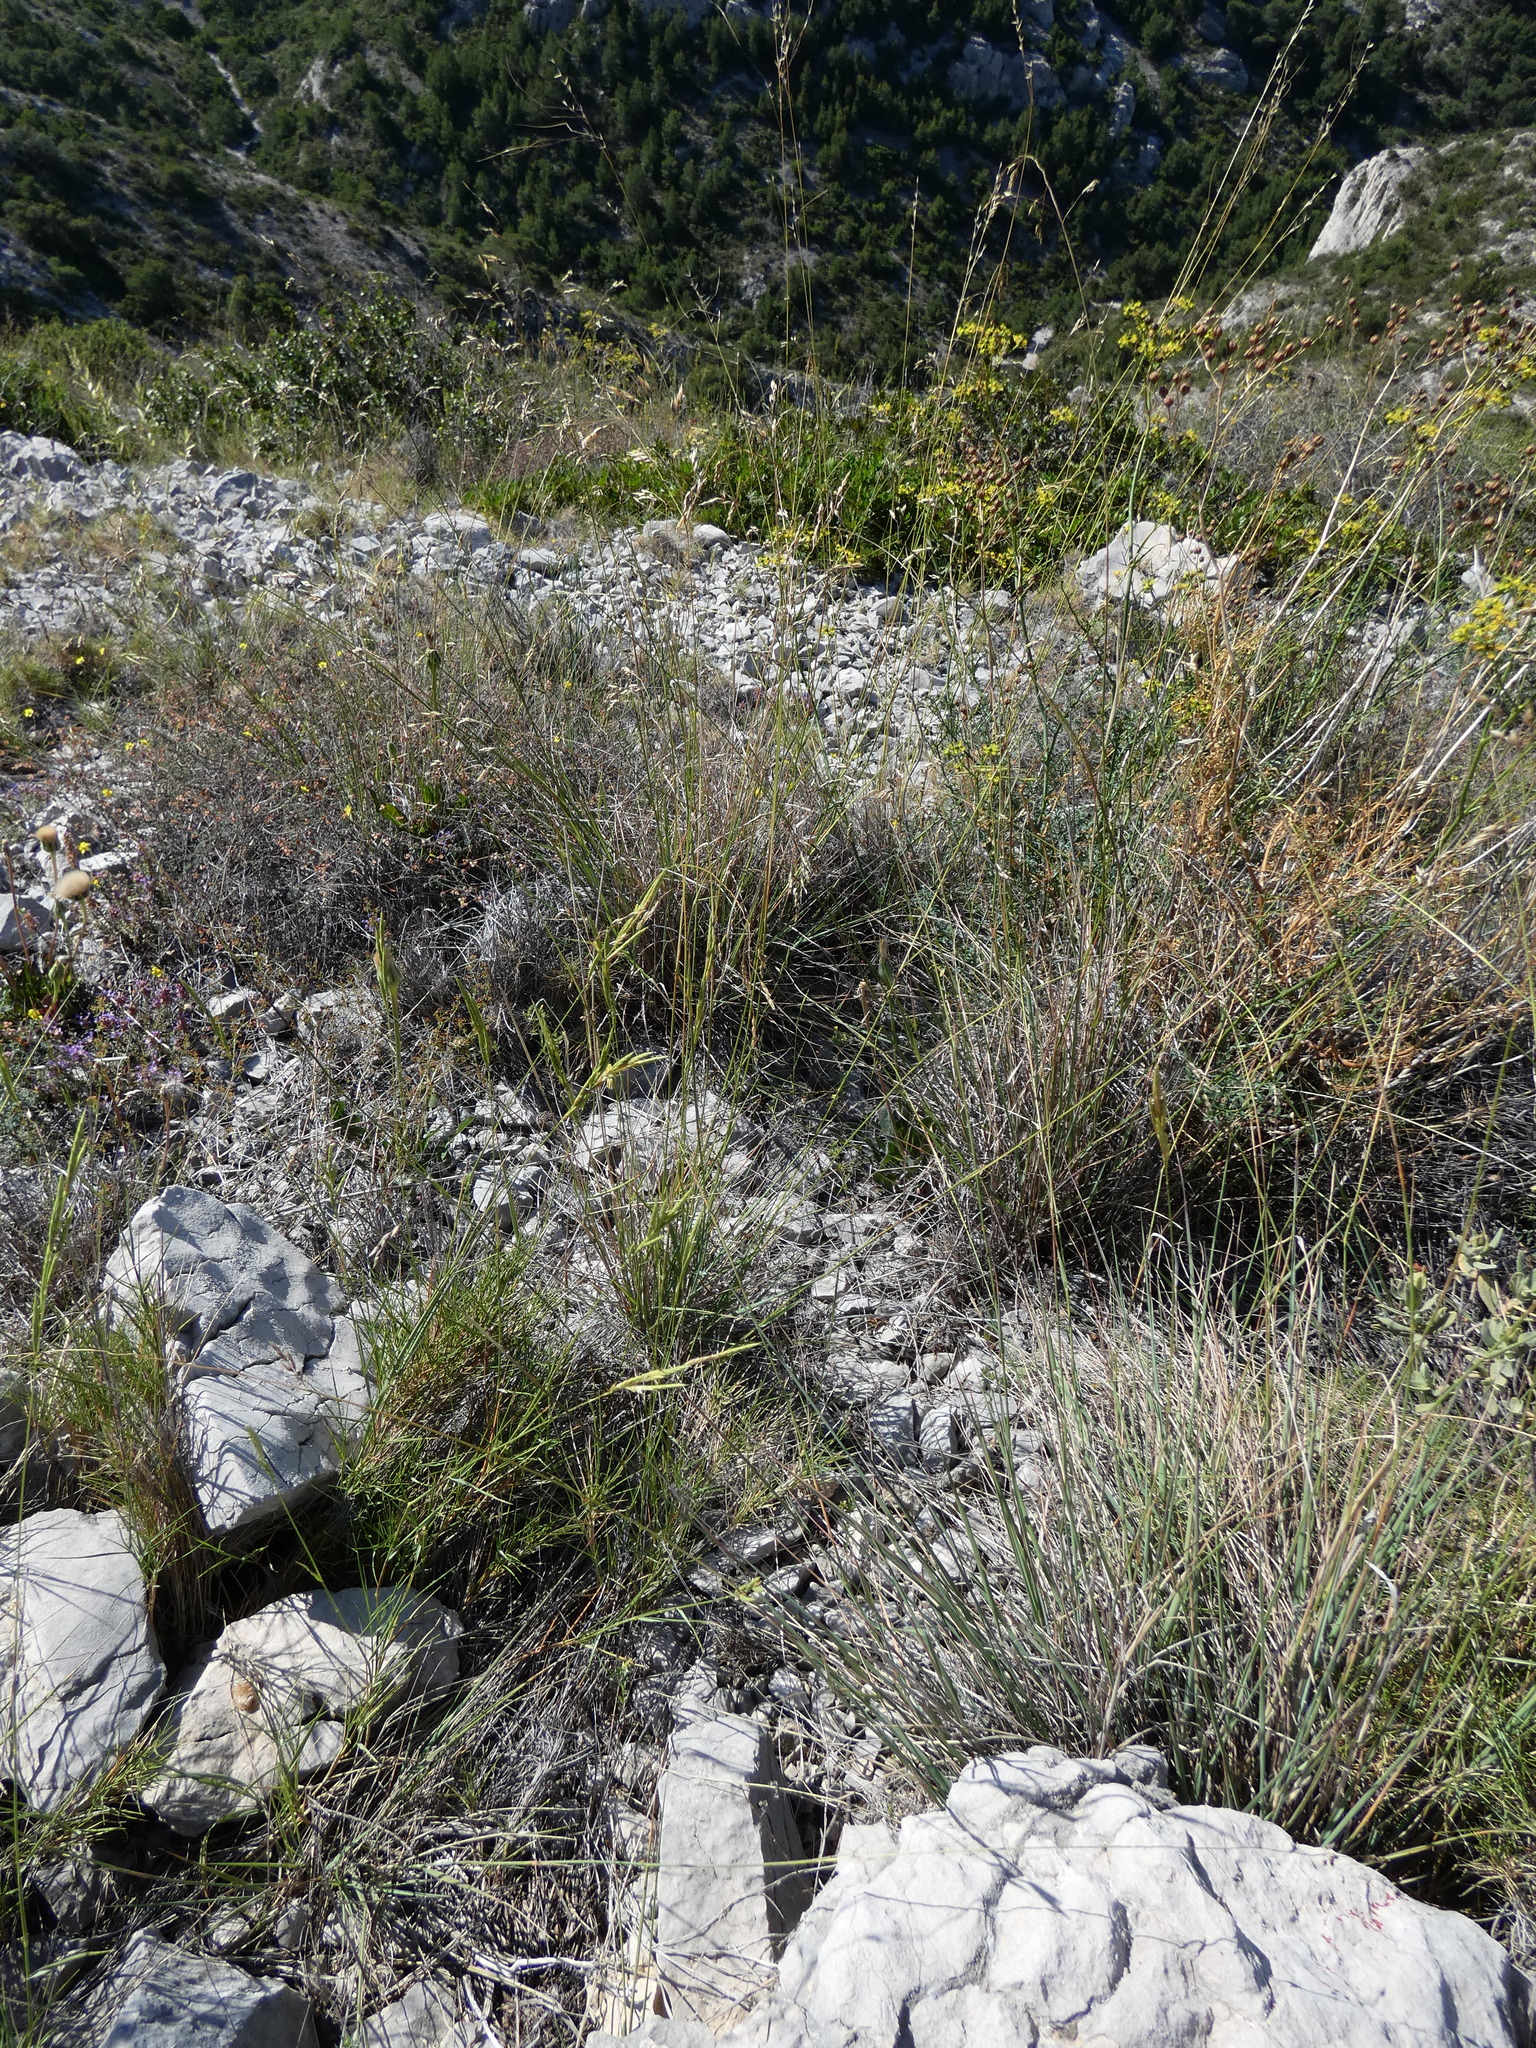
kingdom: Plantae
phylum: Tracheophyta
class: Liliopsida
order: Poales
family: Poaceae
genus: Oryzopsis
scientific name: Oryzopsis coerulescens
